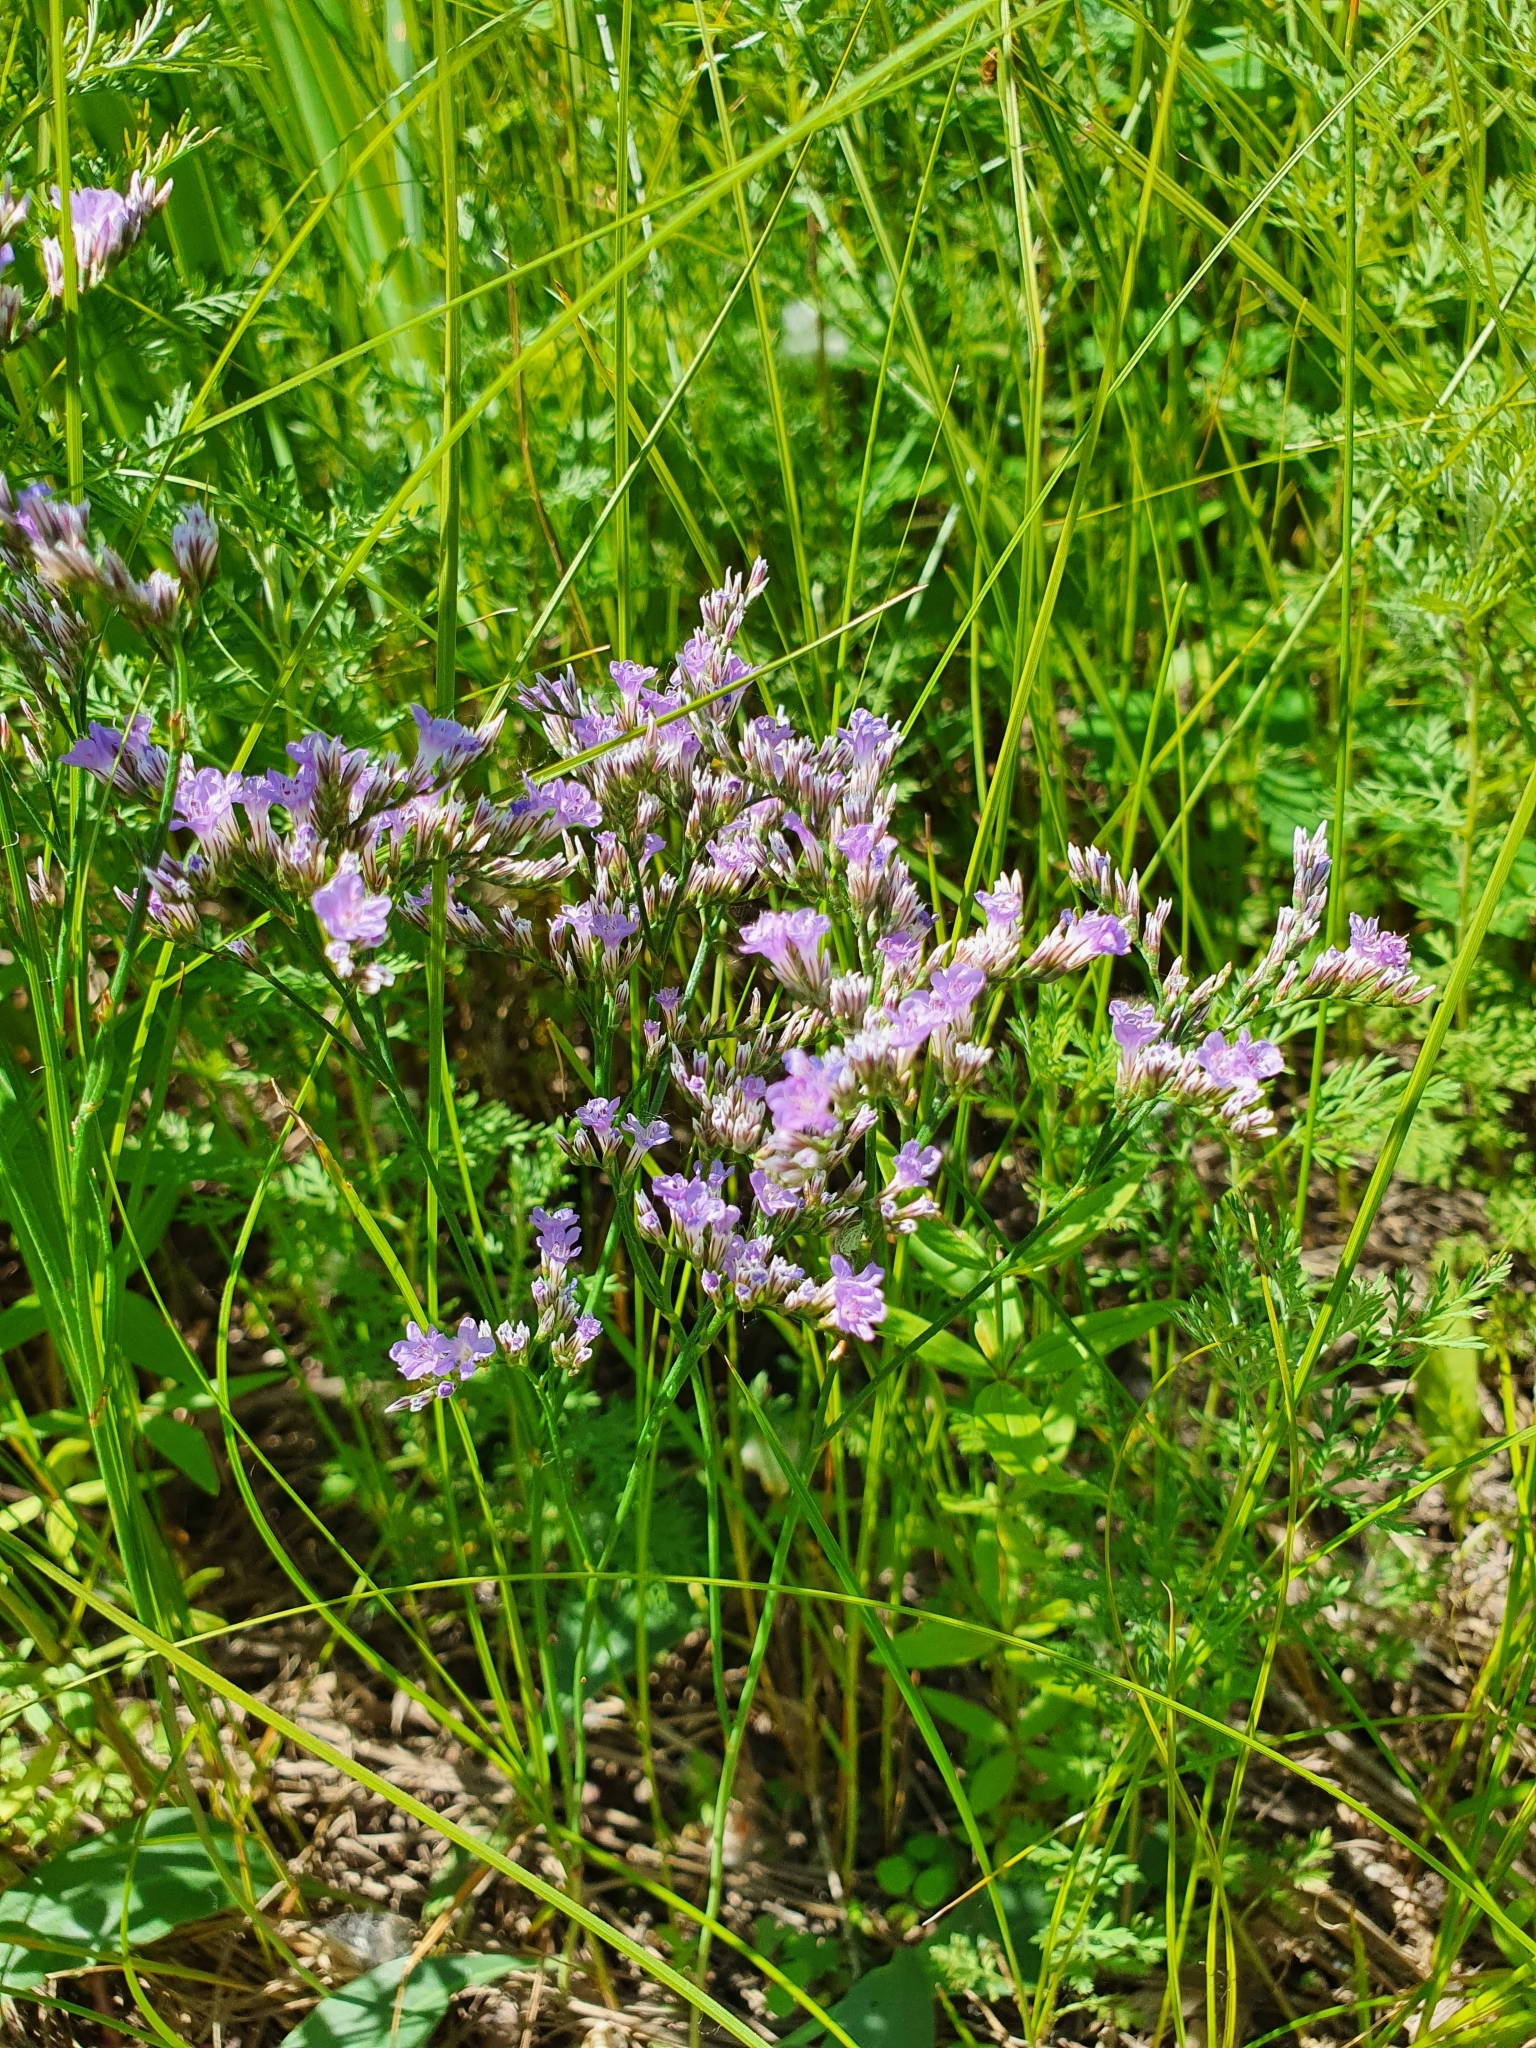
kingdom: Plantae
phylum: Tracheophyta
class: Magnoliopsida
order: Caryophyllales
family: Plumbaginaceae
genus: Limonium
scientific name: Limonium gmelini
